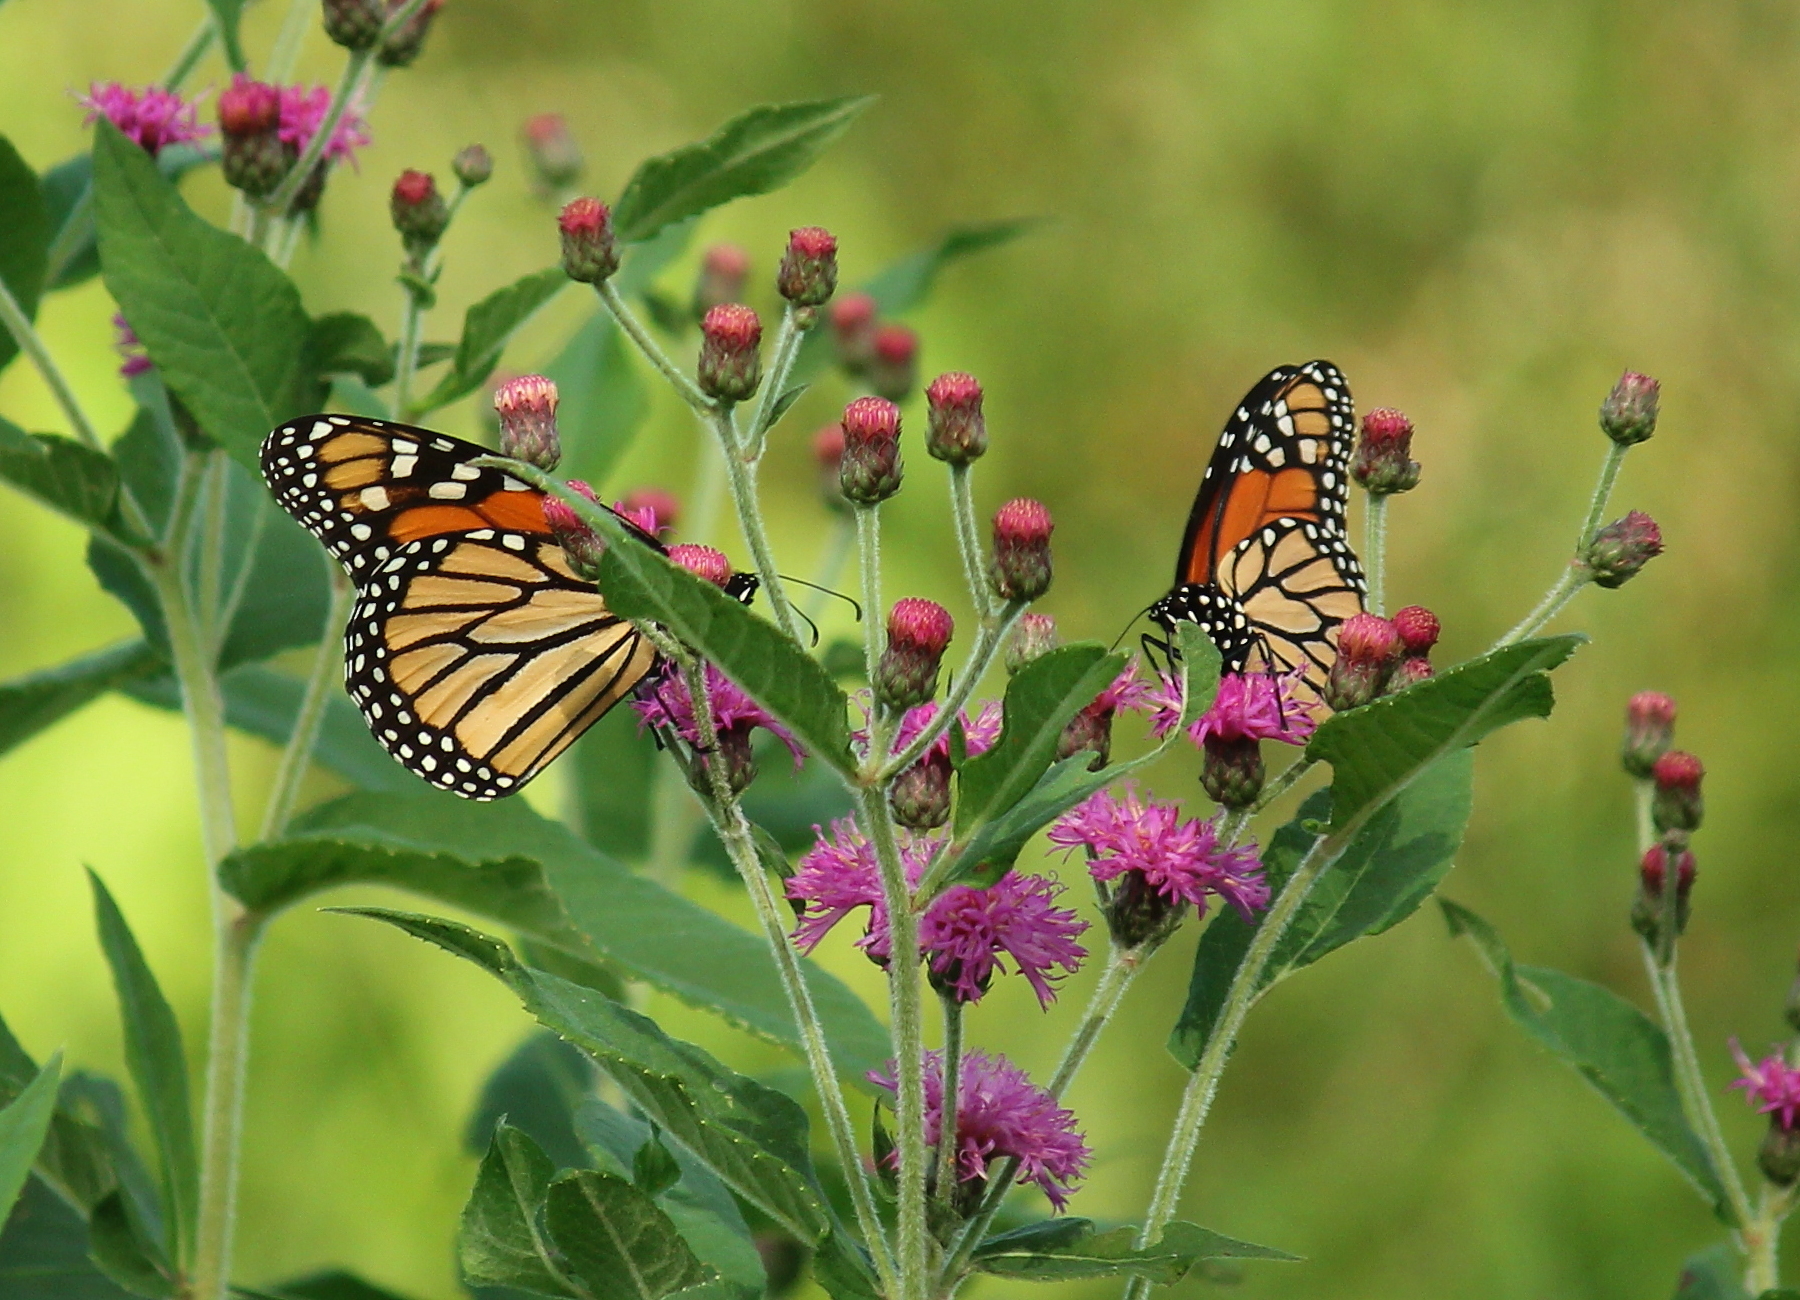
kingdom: Animalia
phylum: Arthropoda
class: Insecta
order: Lepidoptera
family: Nymphalidae
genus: Danaus
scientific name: Danaus plexippus
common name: Monarch
